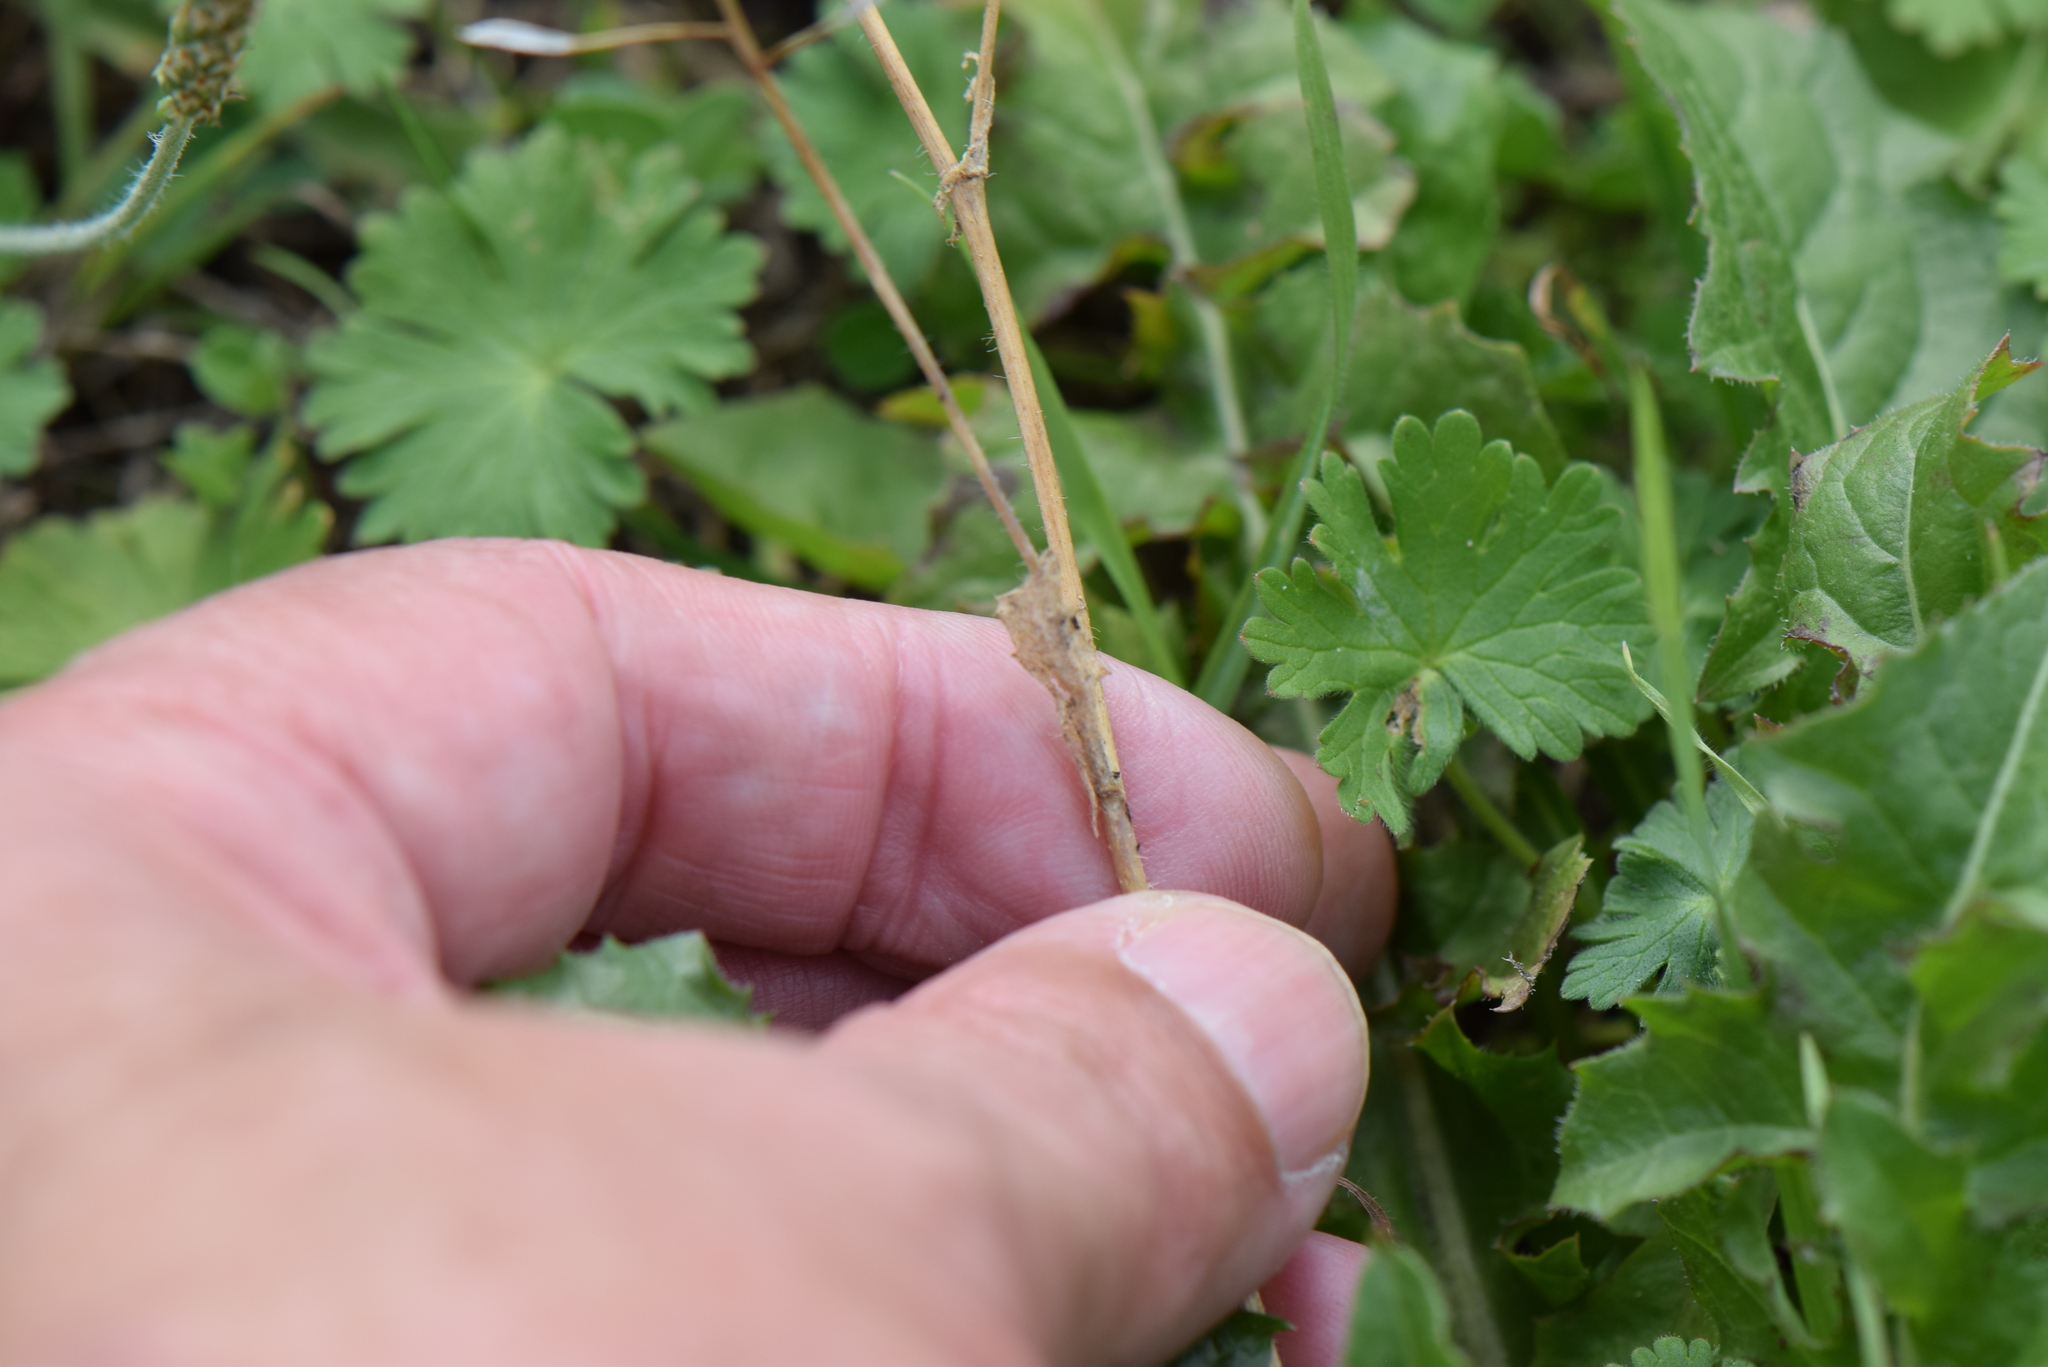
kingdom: Plantae
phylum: Tracheophyta
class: Magnoliopsida
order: Brassicales
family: Brassicaceae
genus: Capsella
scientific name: Capsella bursa-pastoris
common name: Shepherd's purse
